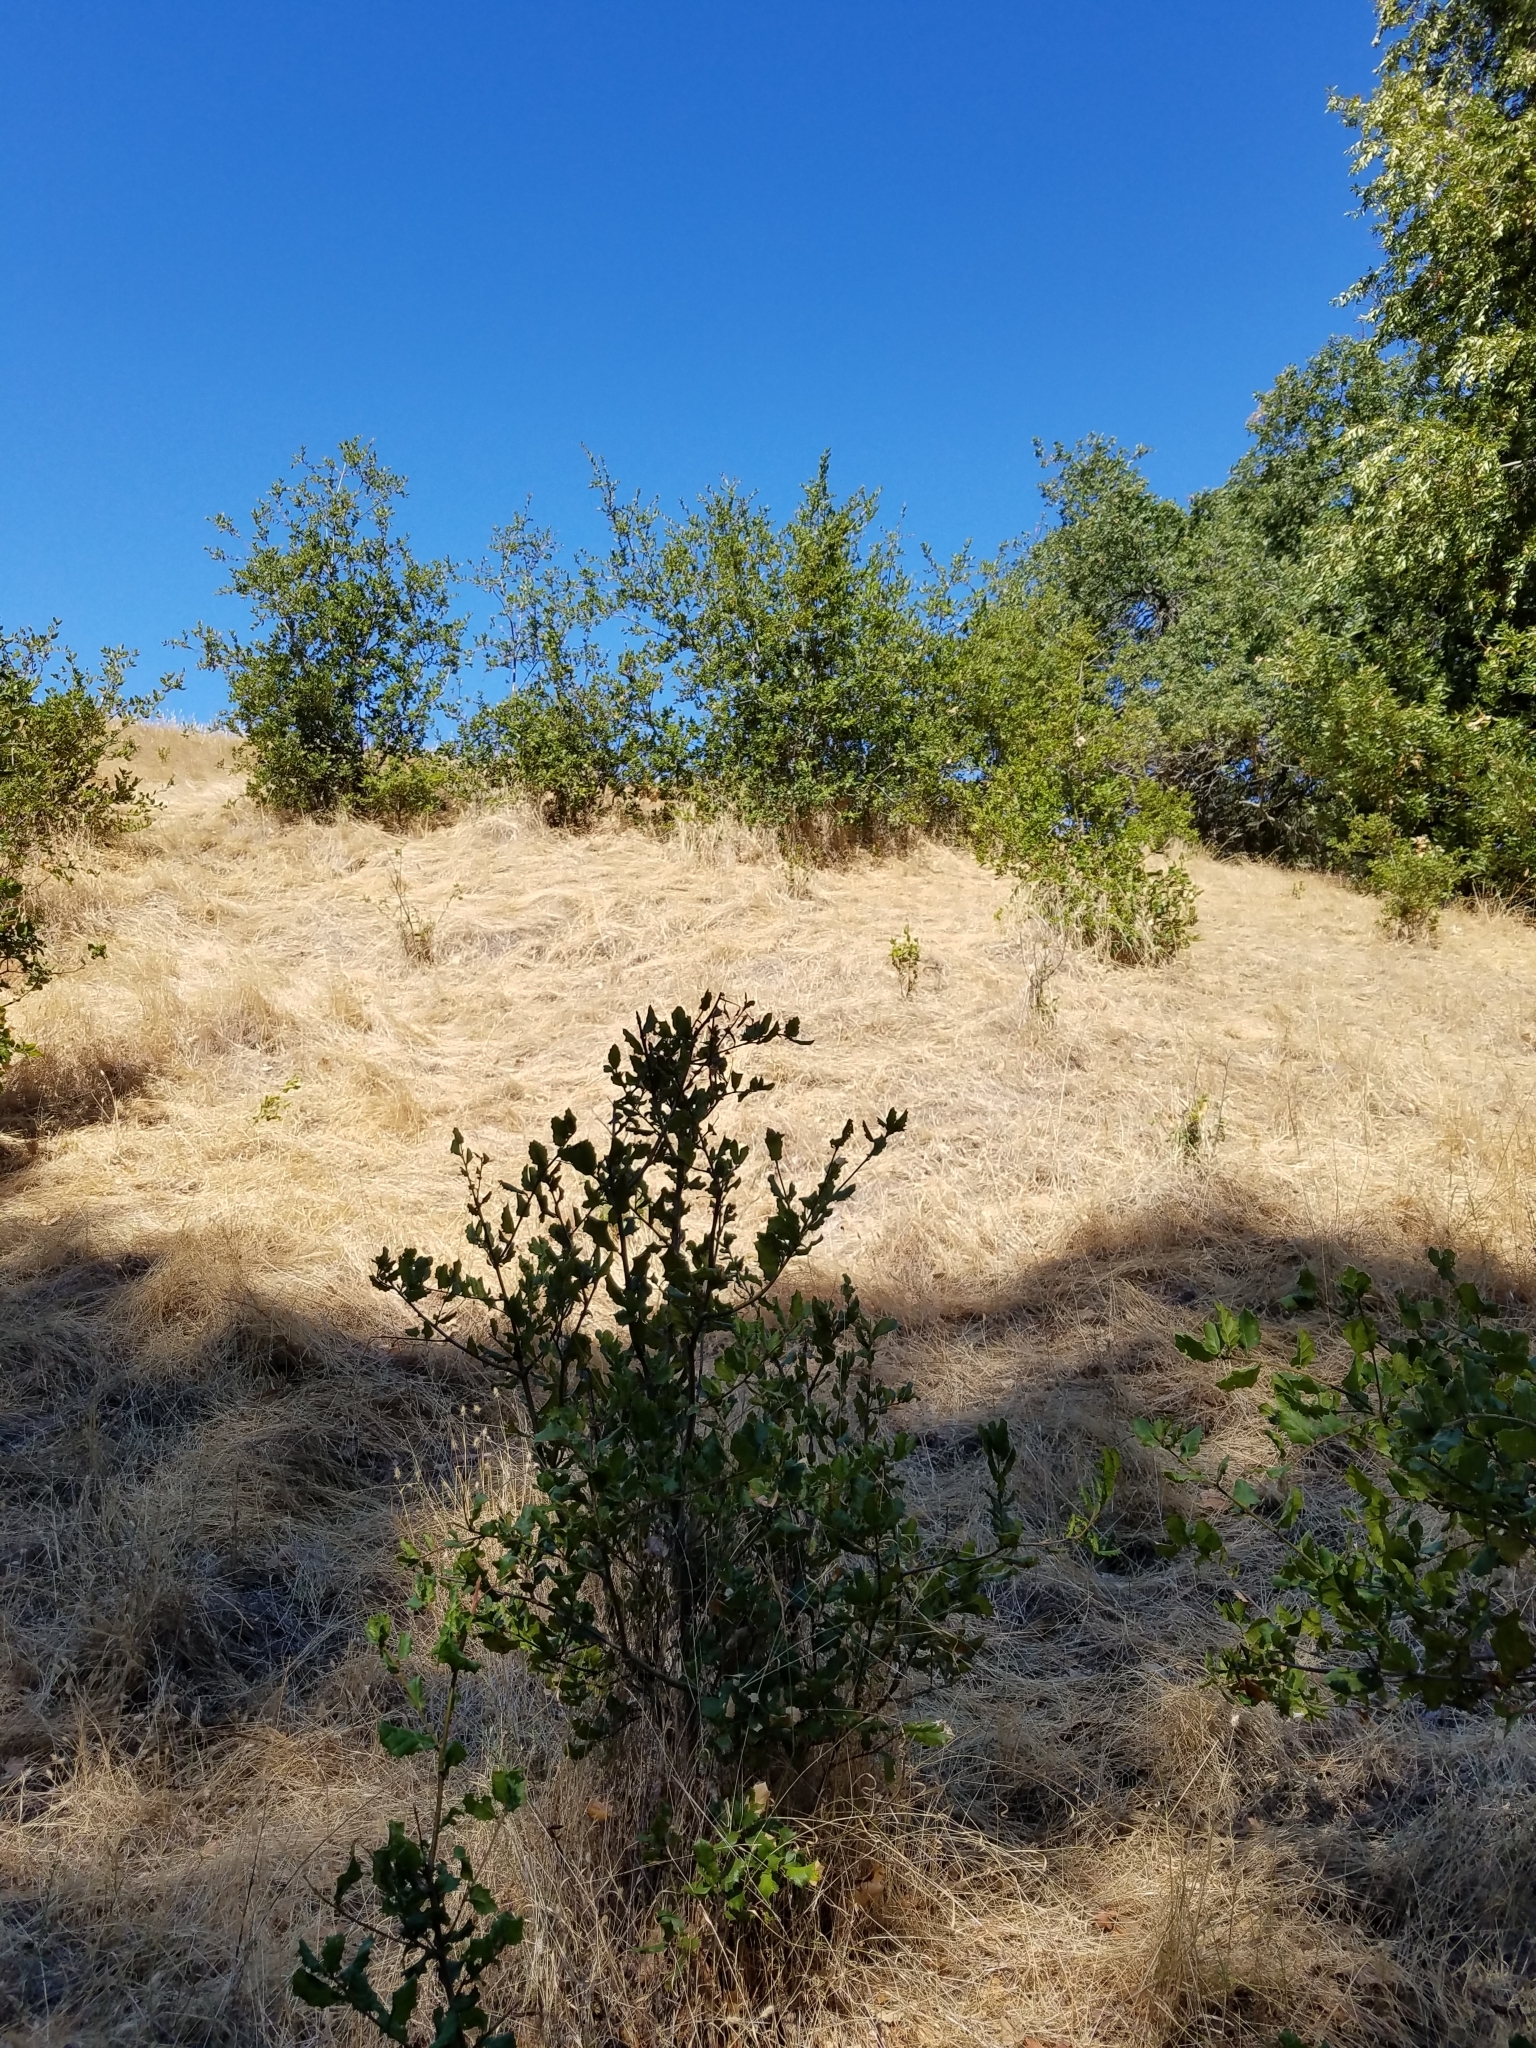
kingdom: Plantae
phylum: Tracheophyta
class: Magnoliopsida
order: Fagales
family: Fagaceae
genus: Quercus
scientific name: Quercus agrifolia
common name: California live oak
